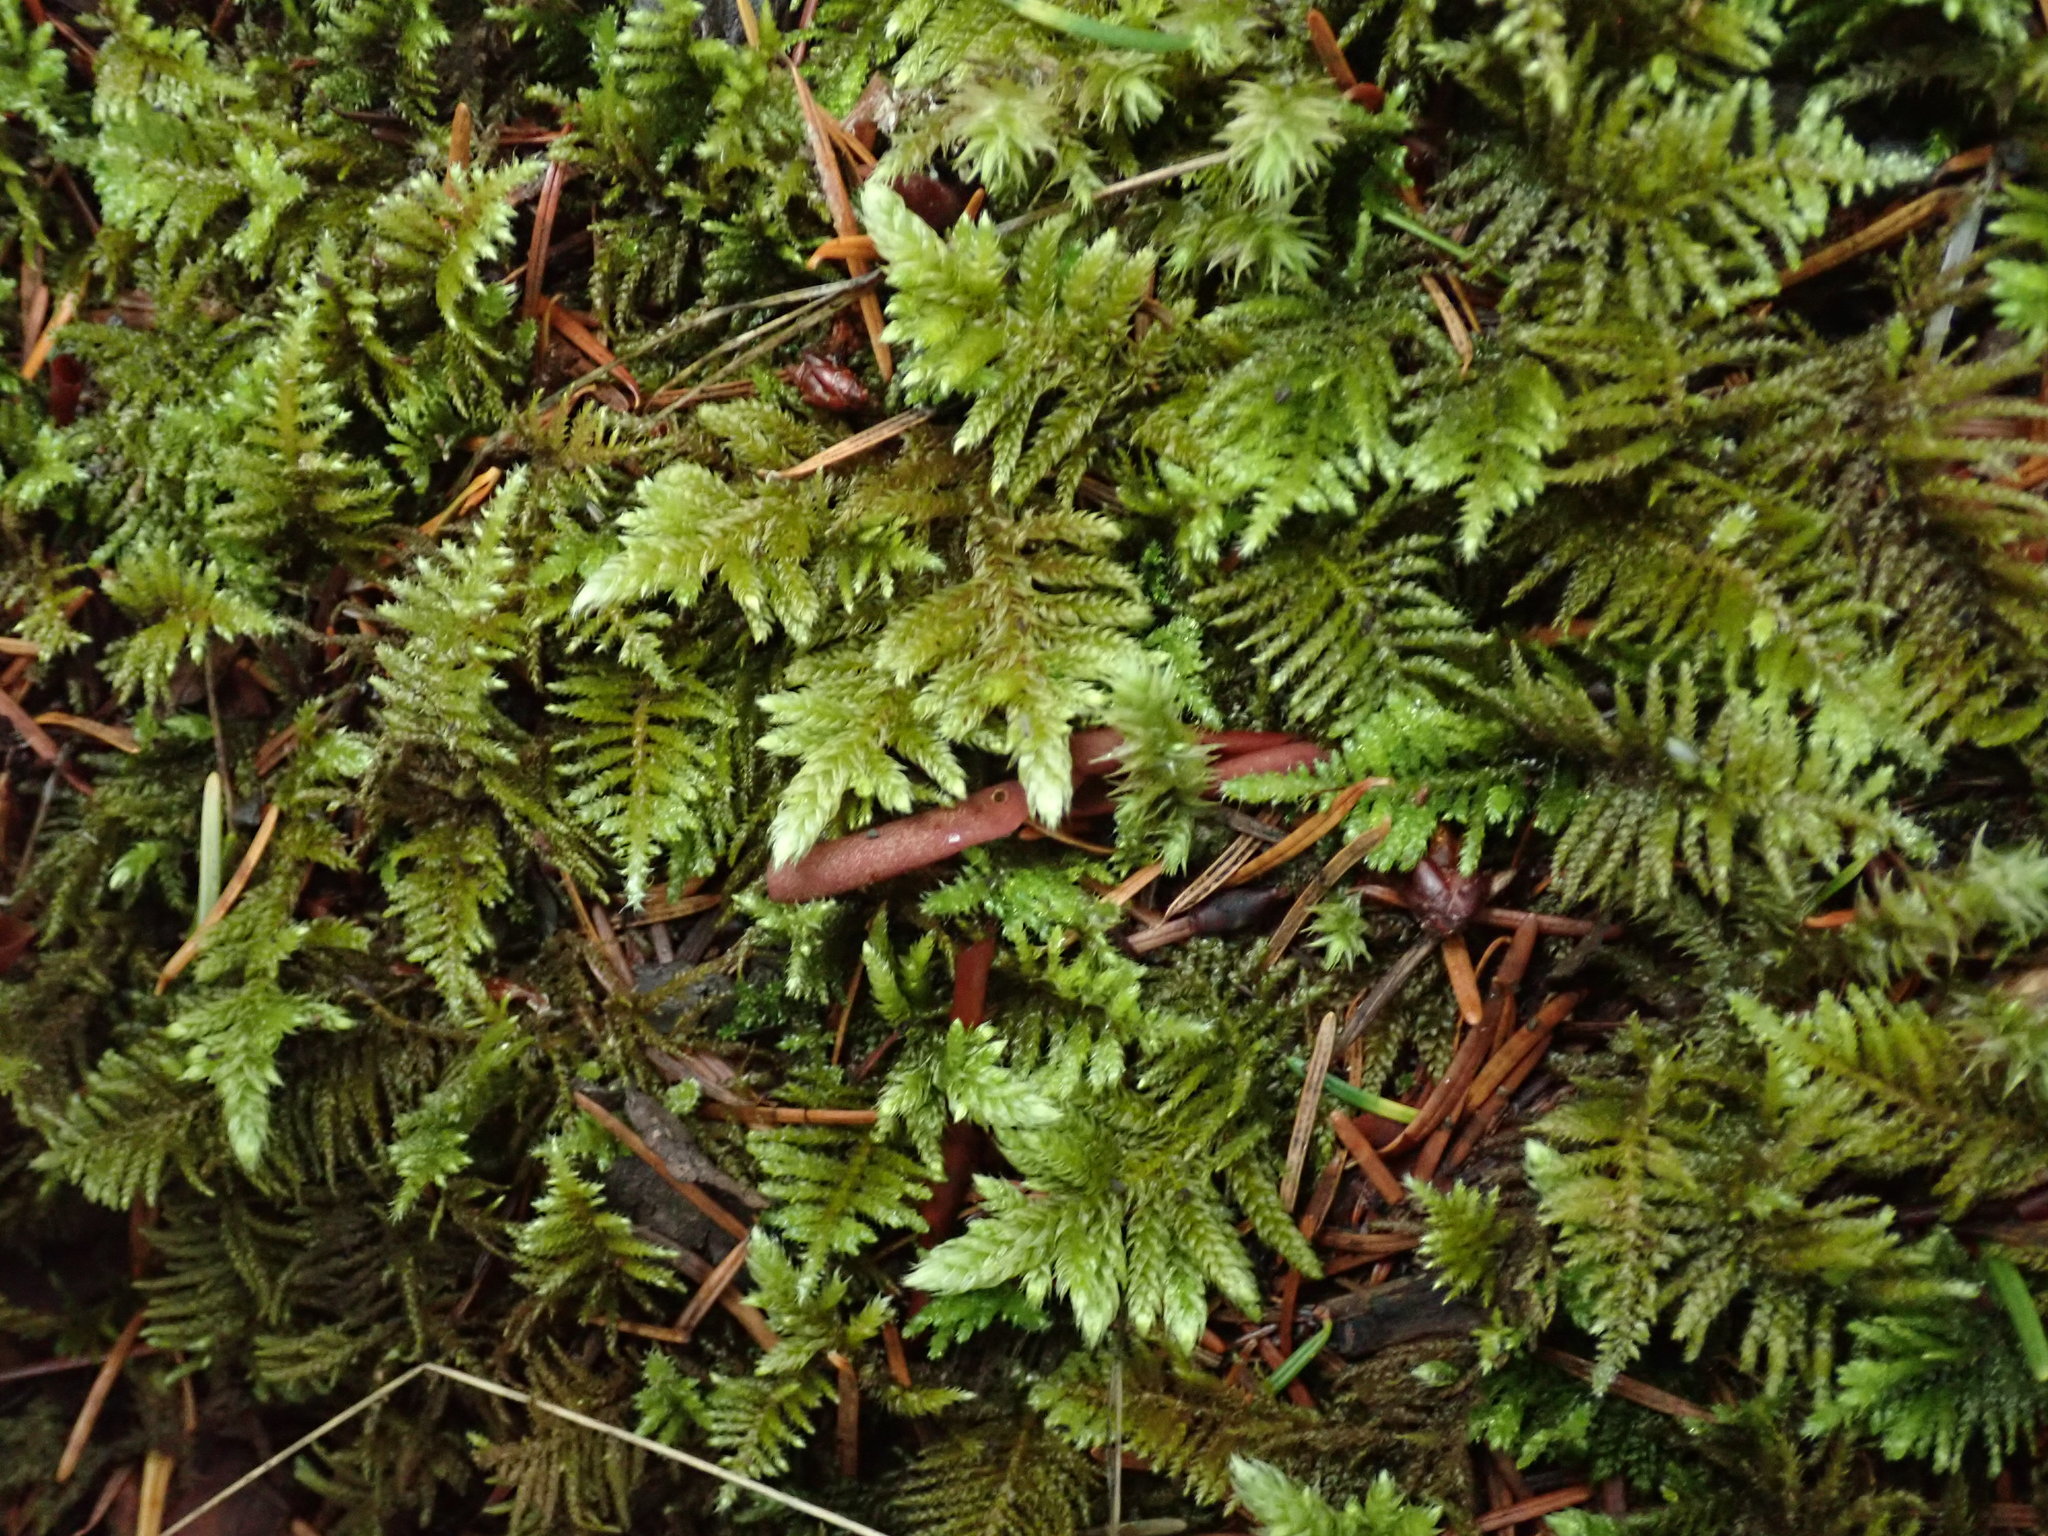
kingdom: Plantae
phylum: Bryophyta
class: Bryopsida
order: Hypnales
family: Brachytheciaceae
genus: Homalothecium
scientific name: Homalothecium megaptilum
